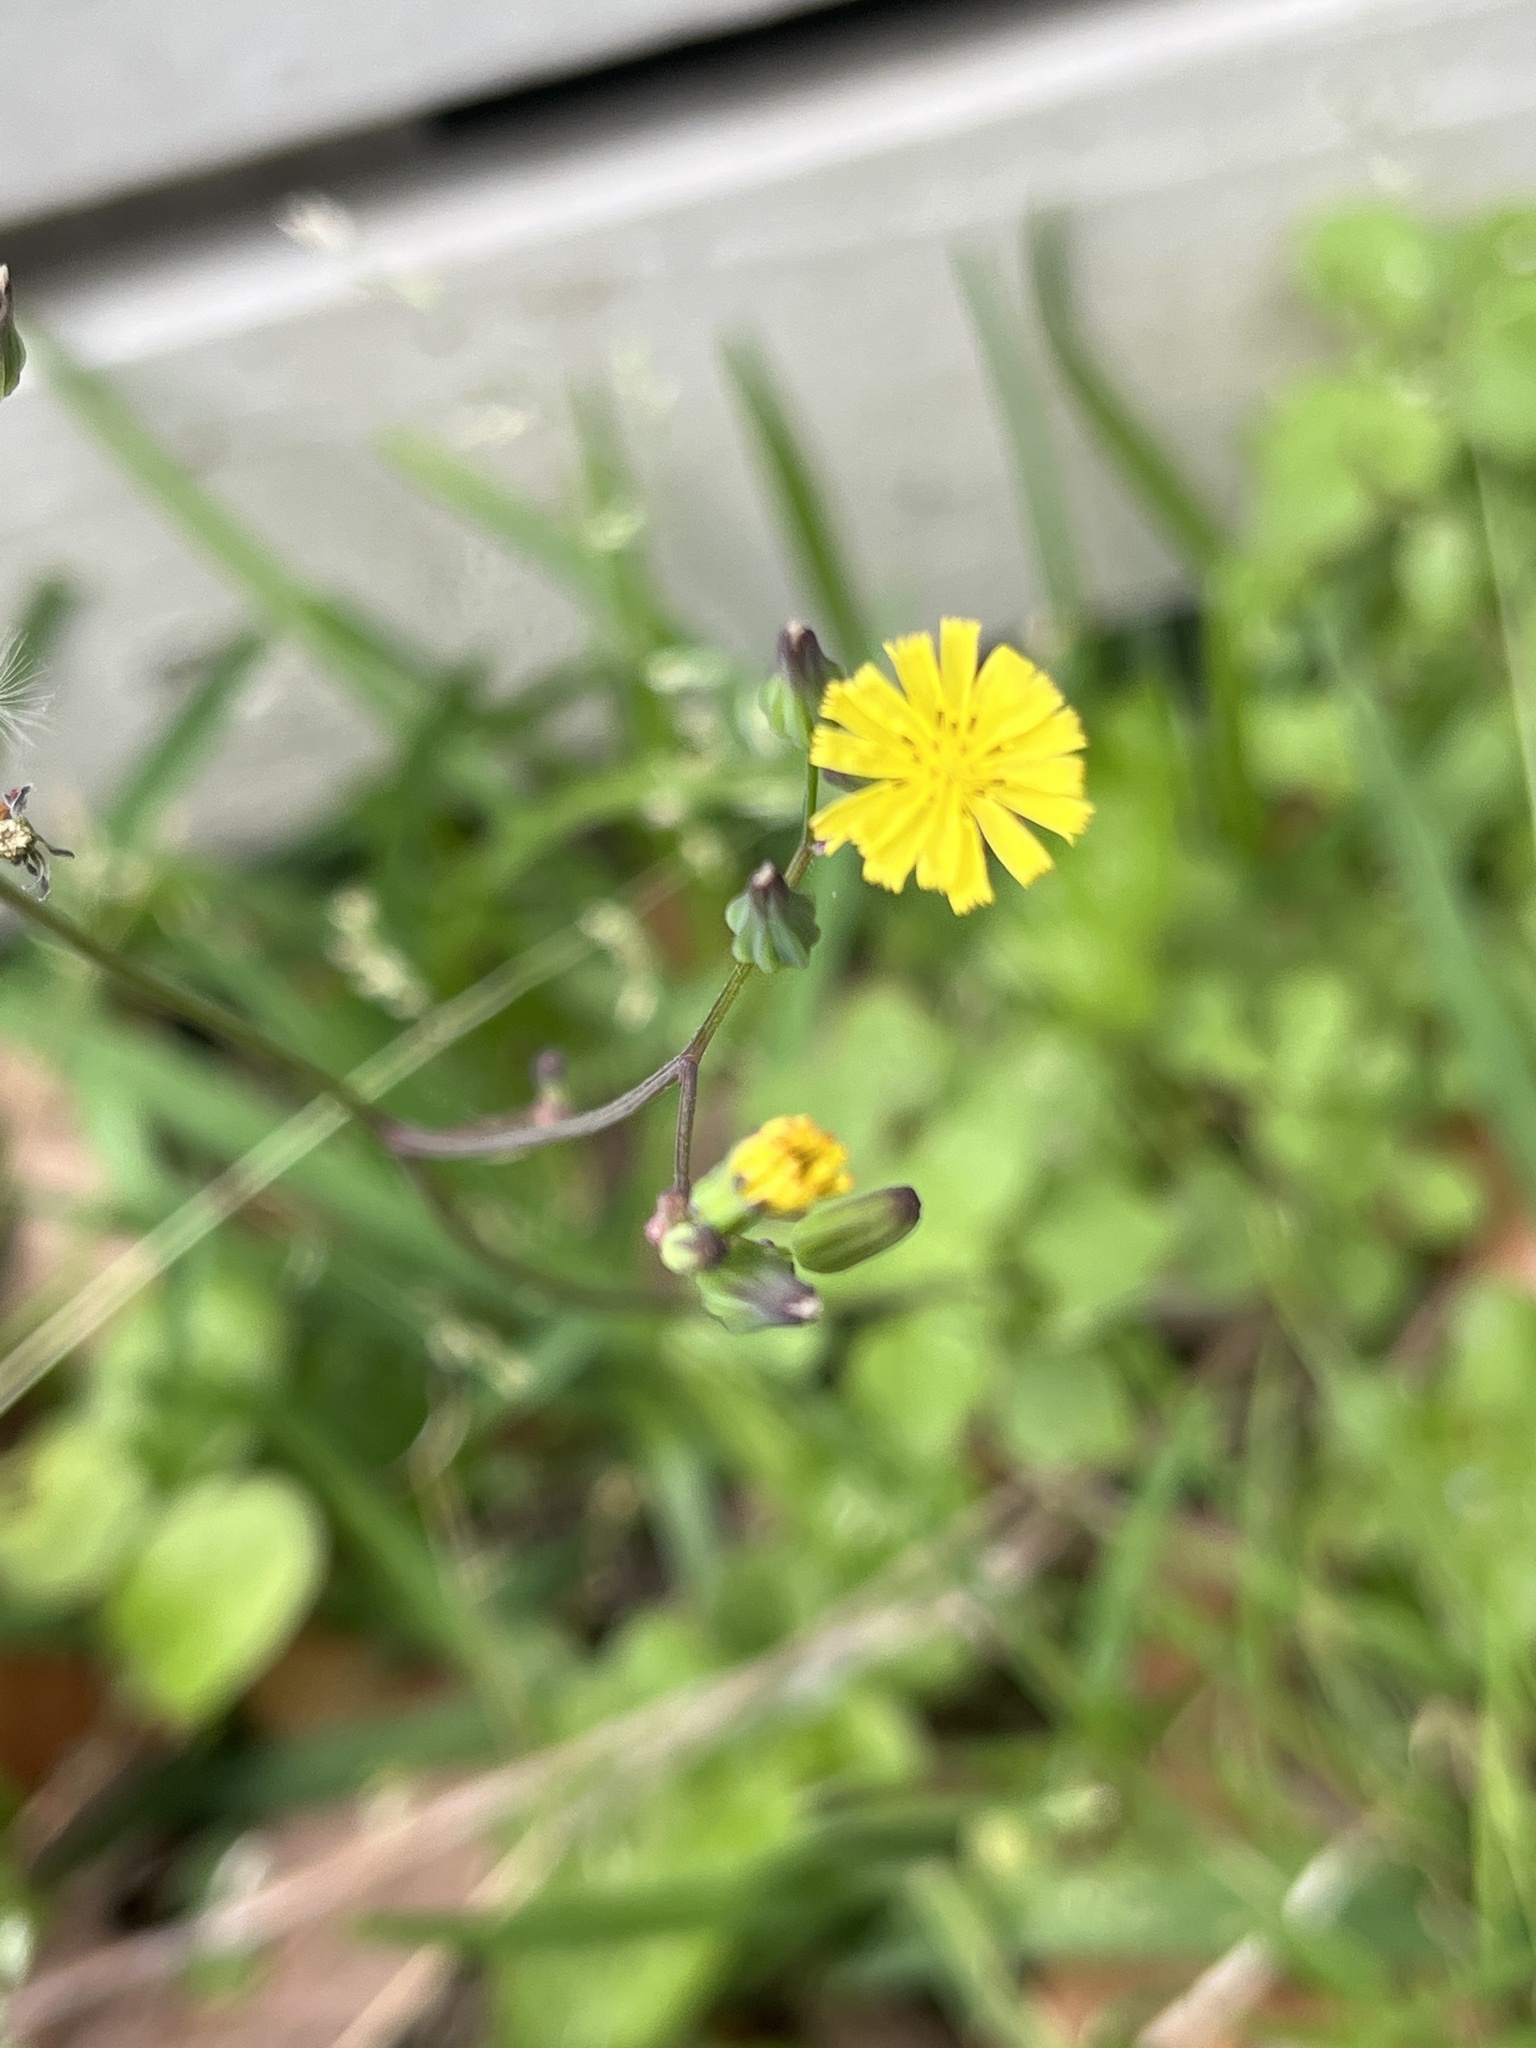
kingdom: Plantae
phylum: Tracheophyta
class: Magnoliopsida
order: Asterales
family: Asteraceae
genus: Youngia
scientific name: Youngia japonica
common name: Oriental false hawksbeard
